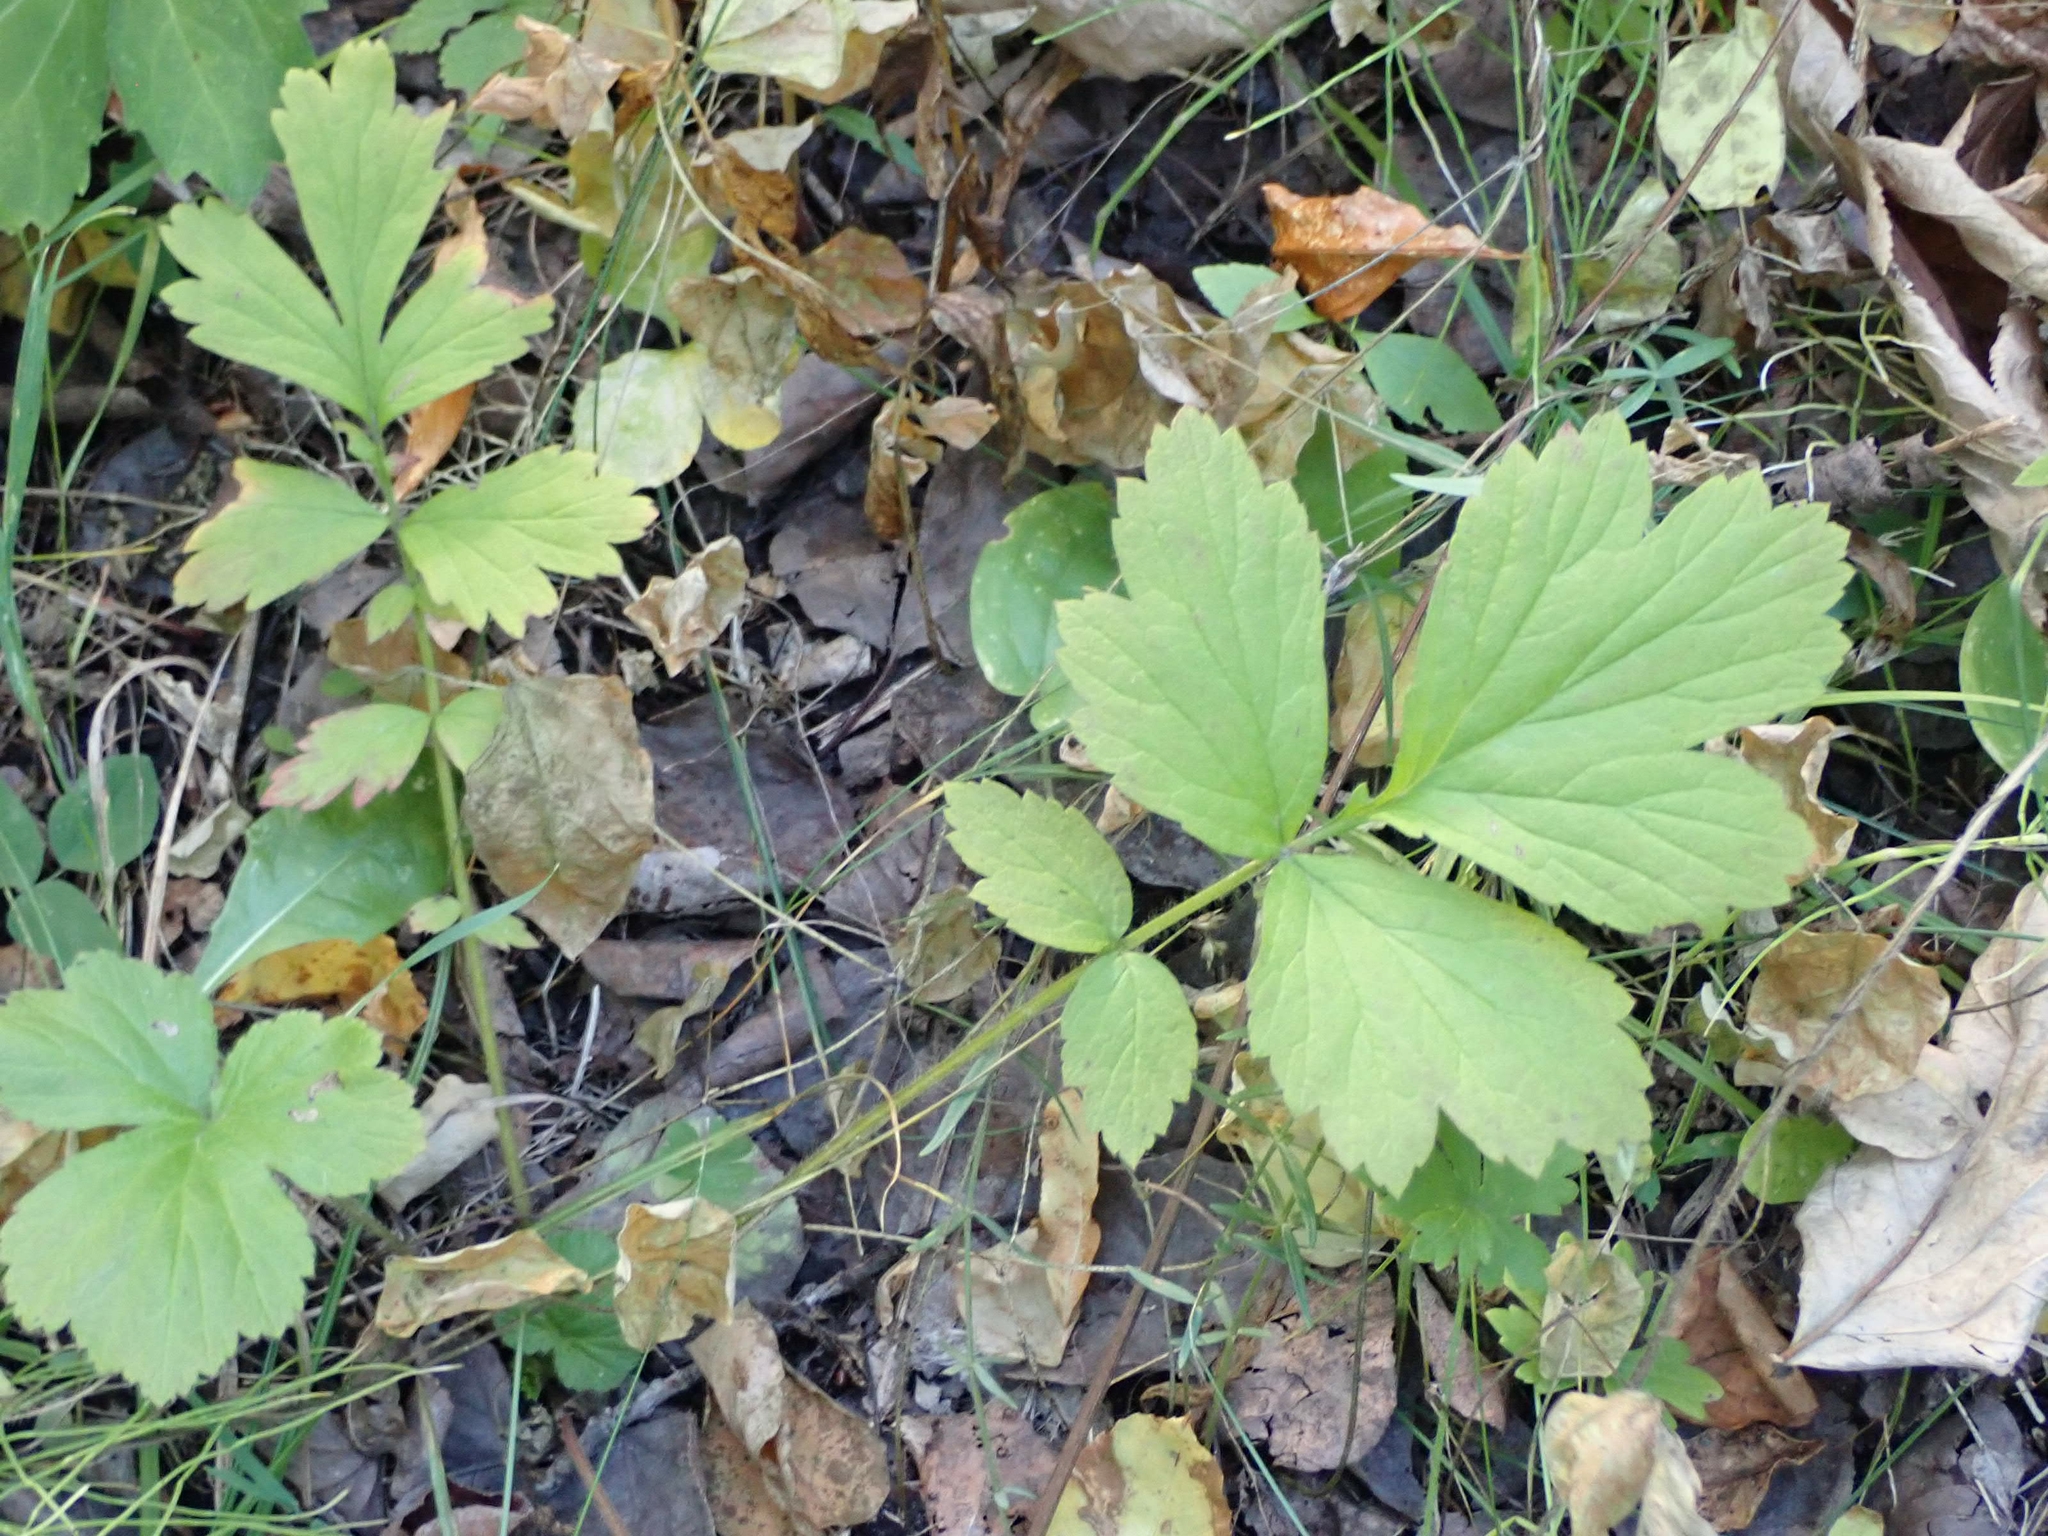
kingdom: Plantae
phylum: Tracheophyta
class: Magnoliopsida
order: Rosales
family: Rosaceae
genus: Geum
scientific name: Geum aleppicum
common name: Yellow avens
